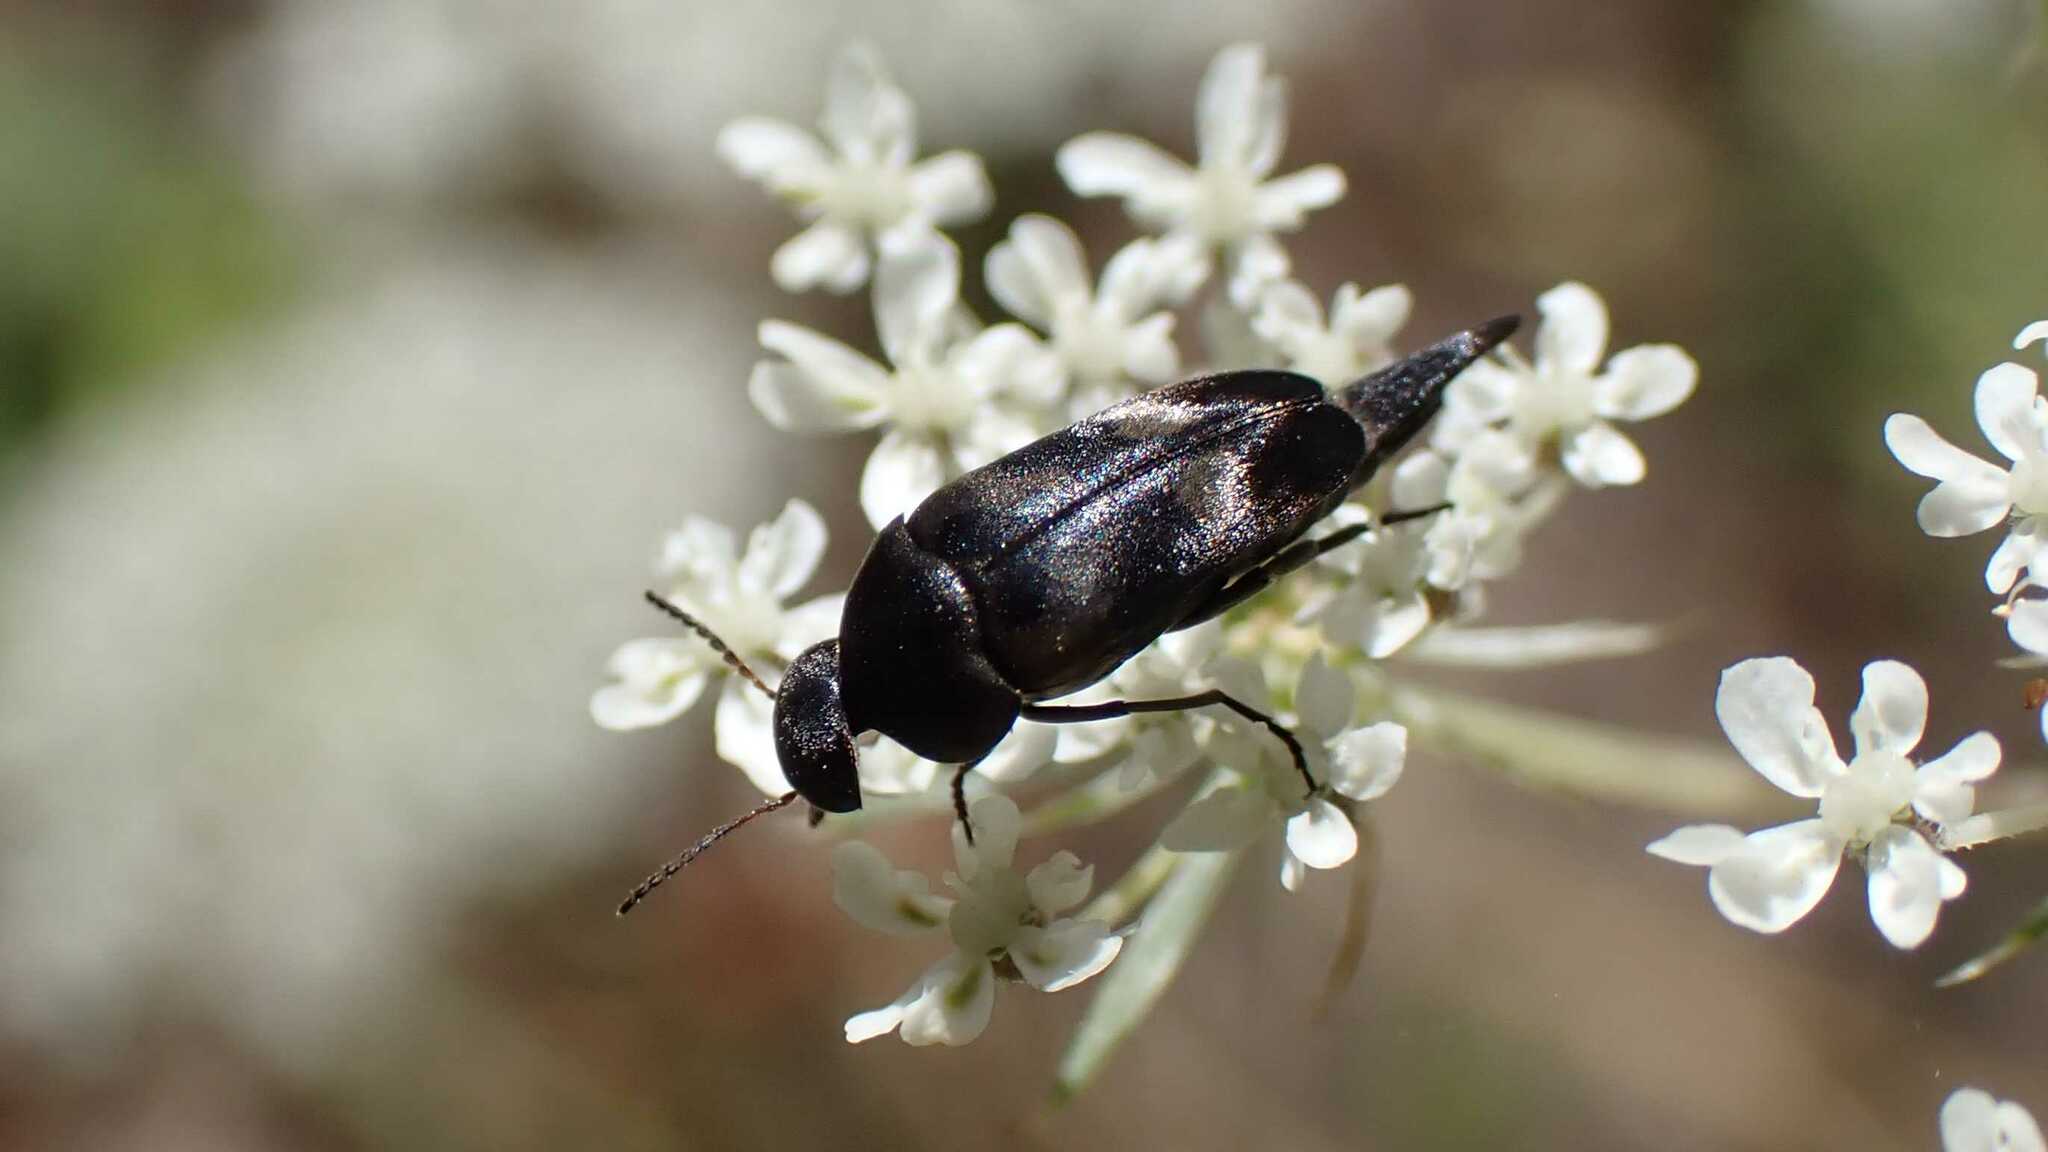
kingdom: Animalia
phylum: Arthropoda
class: Insecta
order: Coleoptera
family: Mordellidae
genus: Variimorda
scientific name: Variimorda
